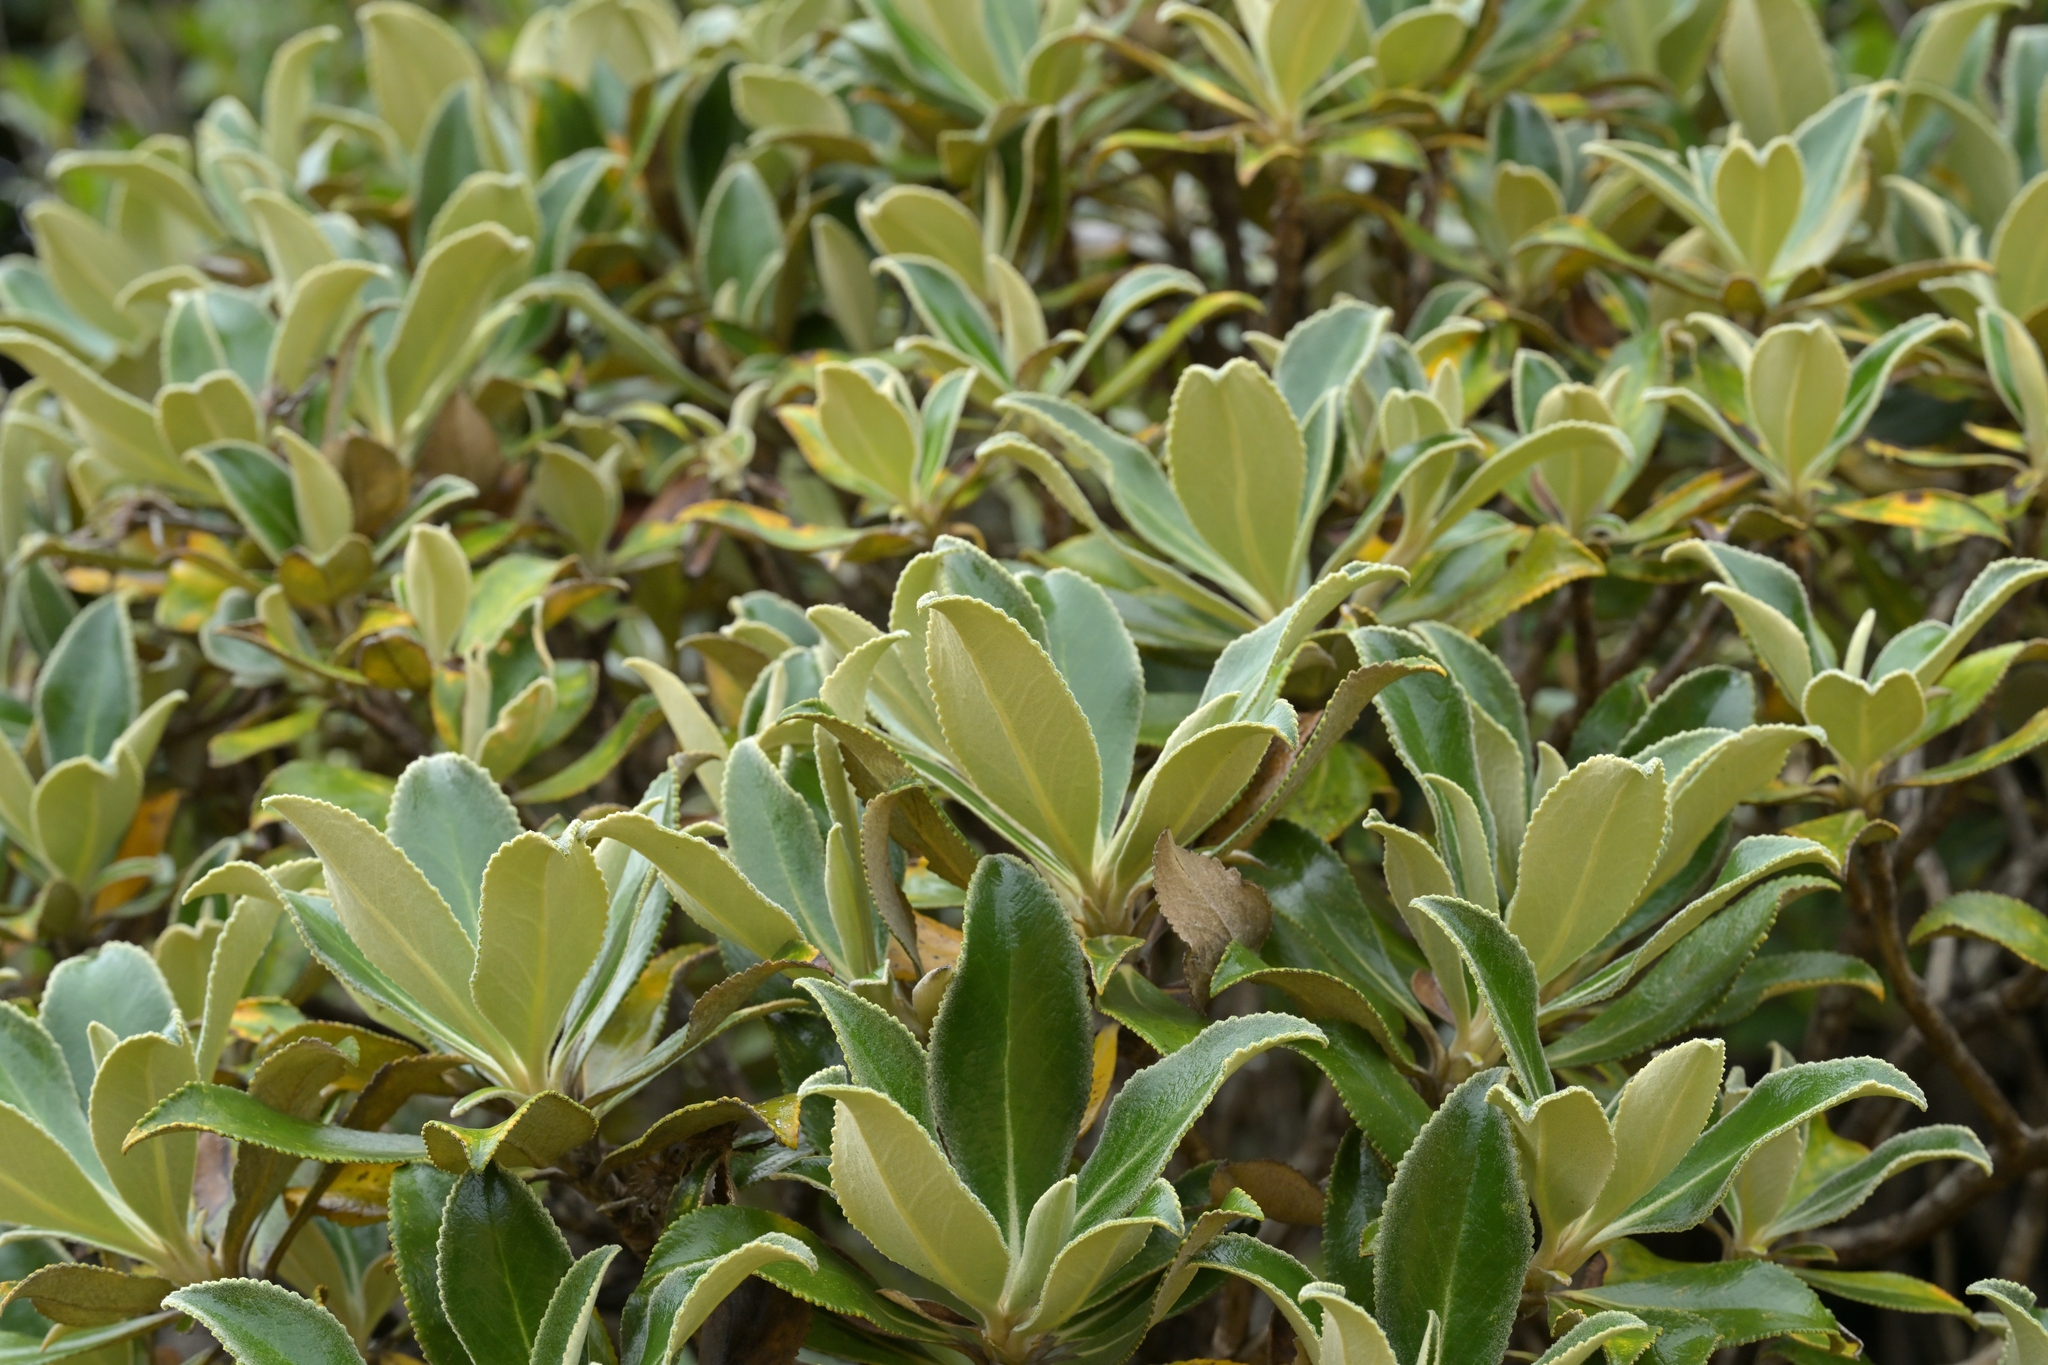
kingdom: Plantae
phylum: Tracheophyta
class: Magnoliopsida
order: Asterales
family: Asteraceae
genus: Macrolearia
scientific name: Macrolearia colensoi
